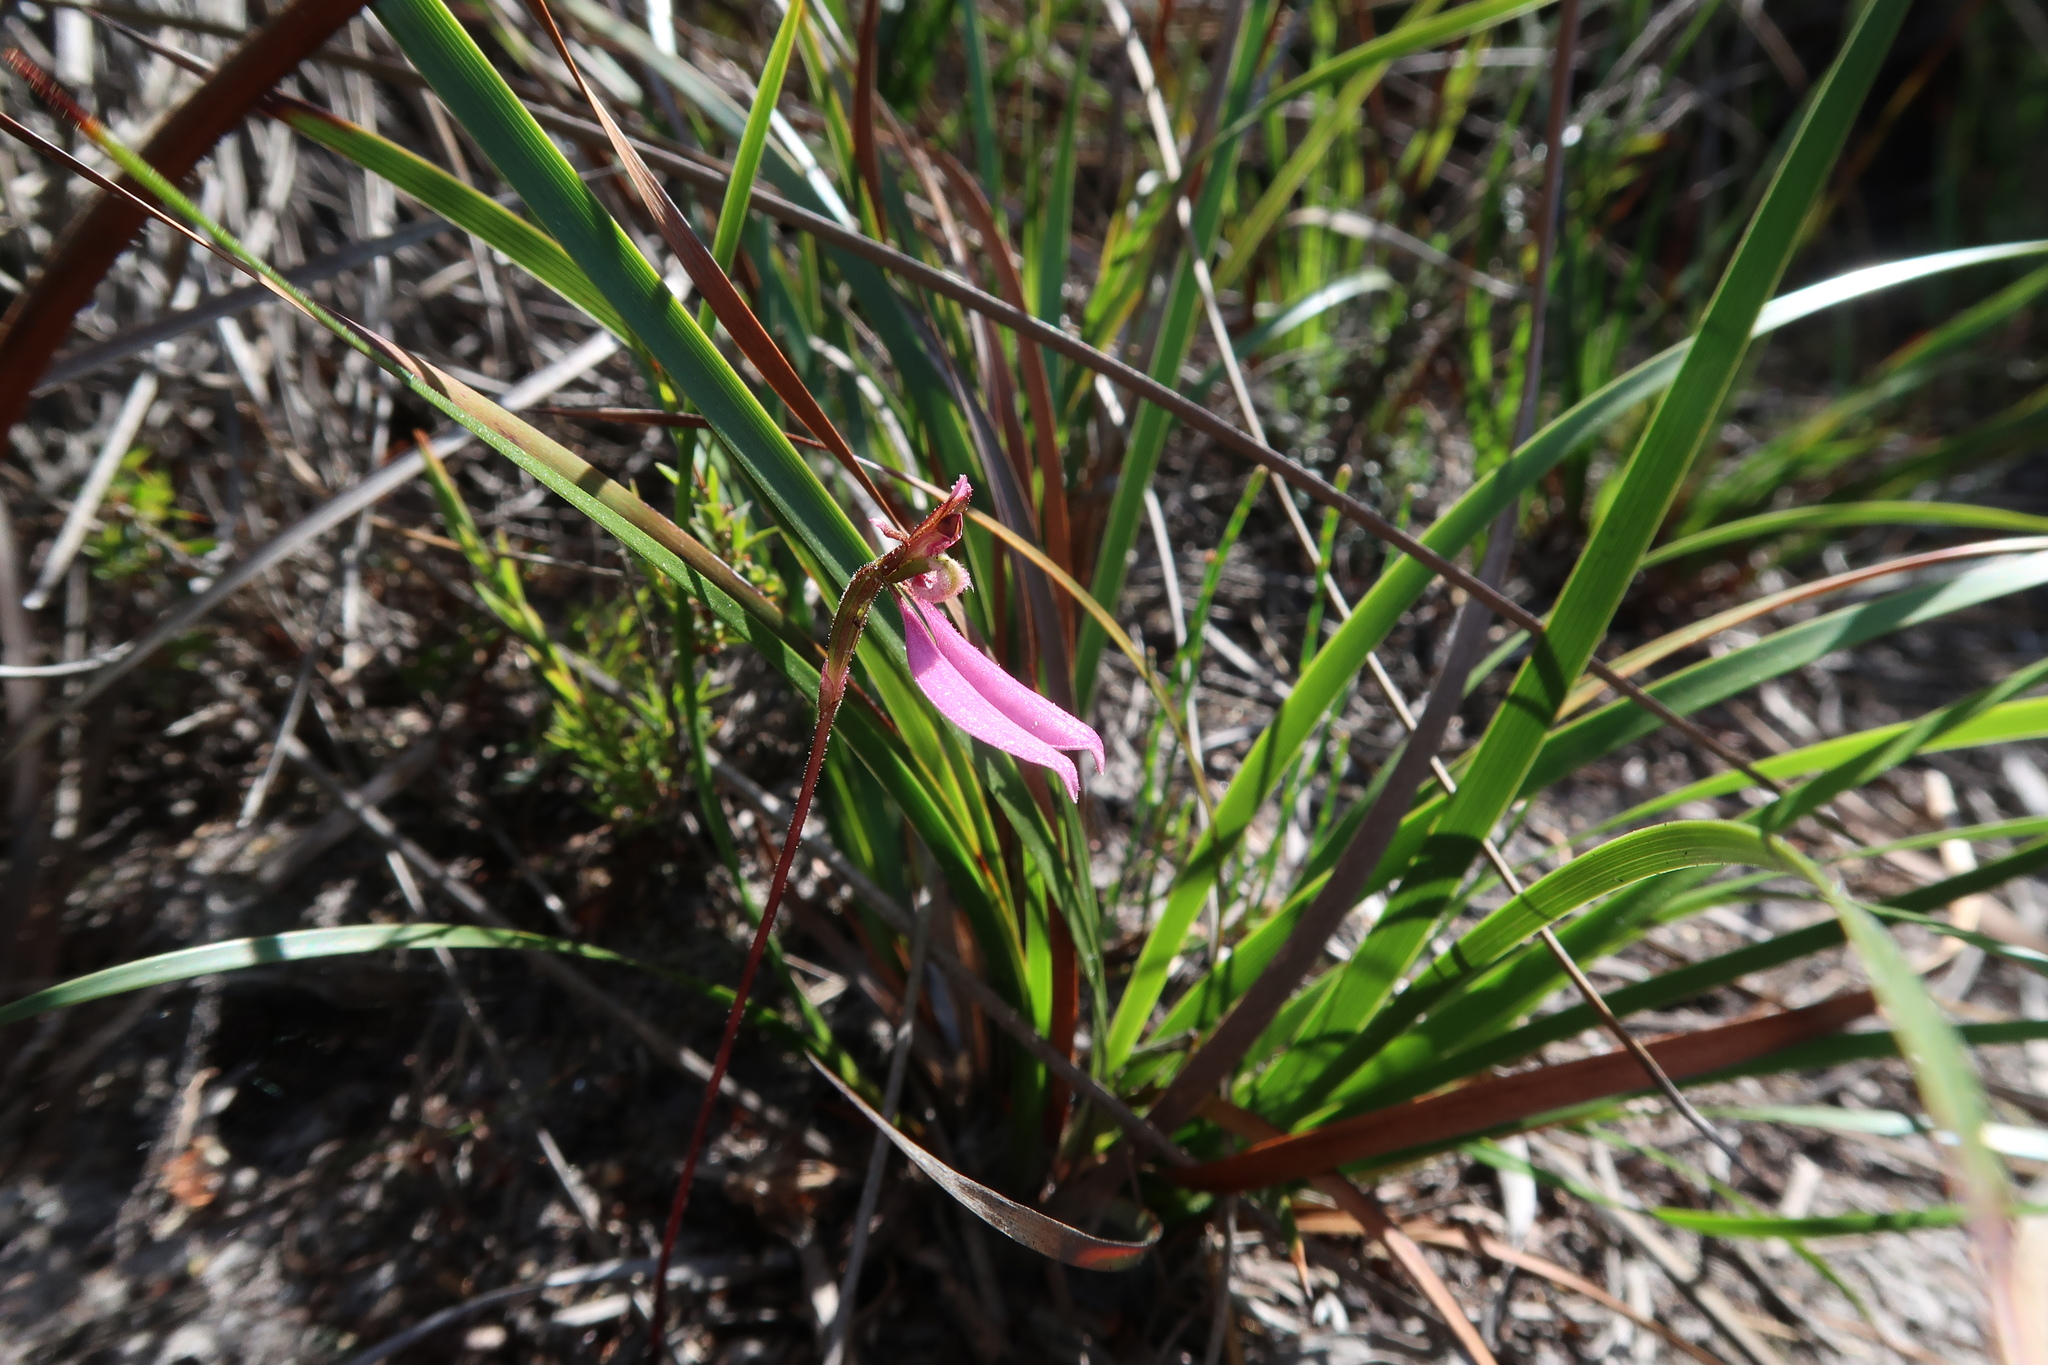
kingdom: Plantae
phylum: Tracheophyta
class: Liliopsida
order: Asparagales
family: Orchidaceae
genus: Eriochilus
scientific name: Eriochilus cucullatus
